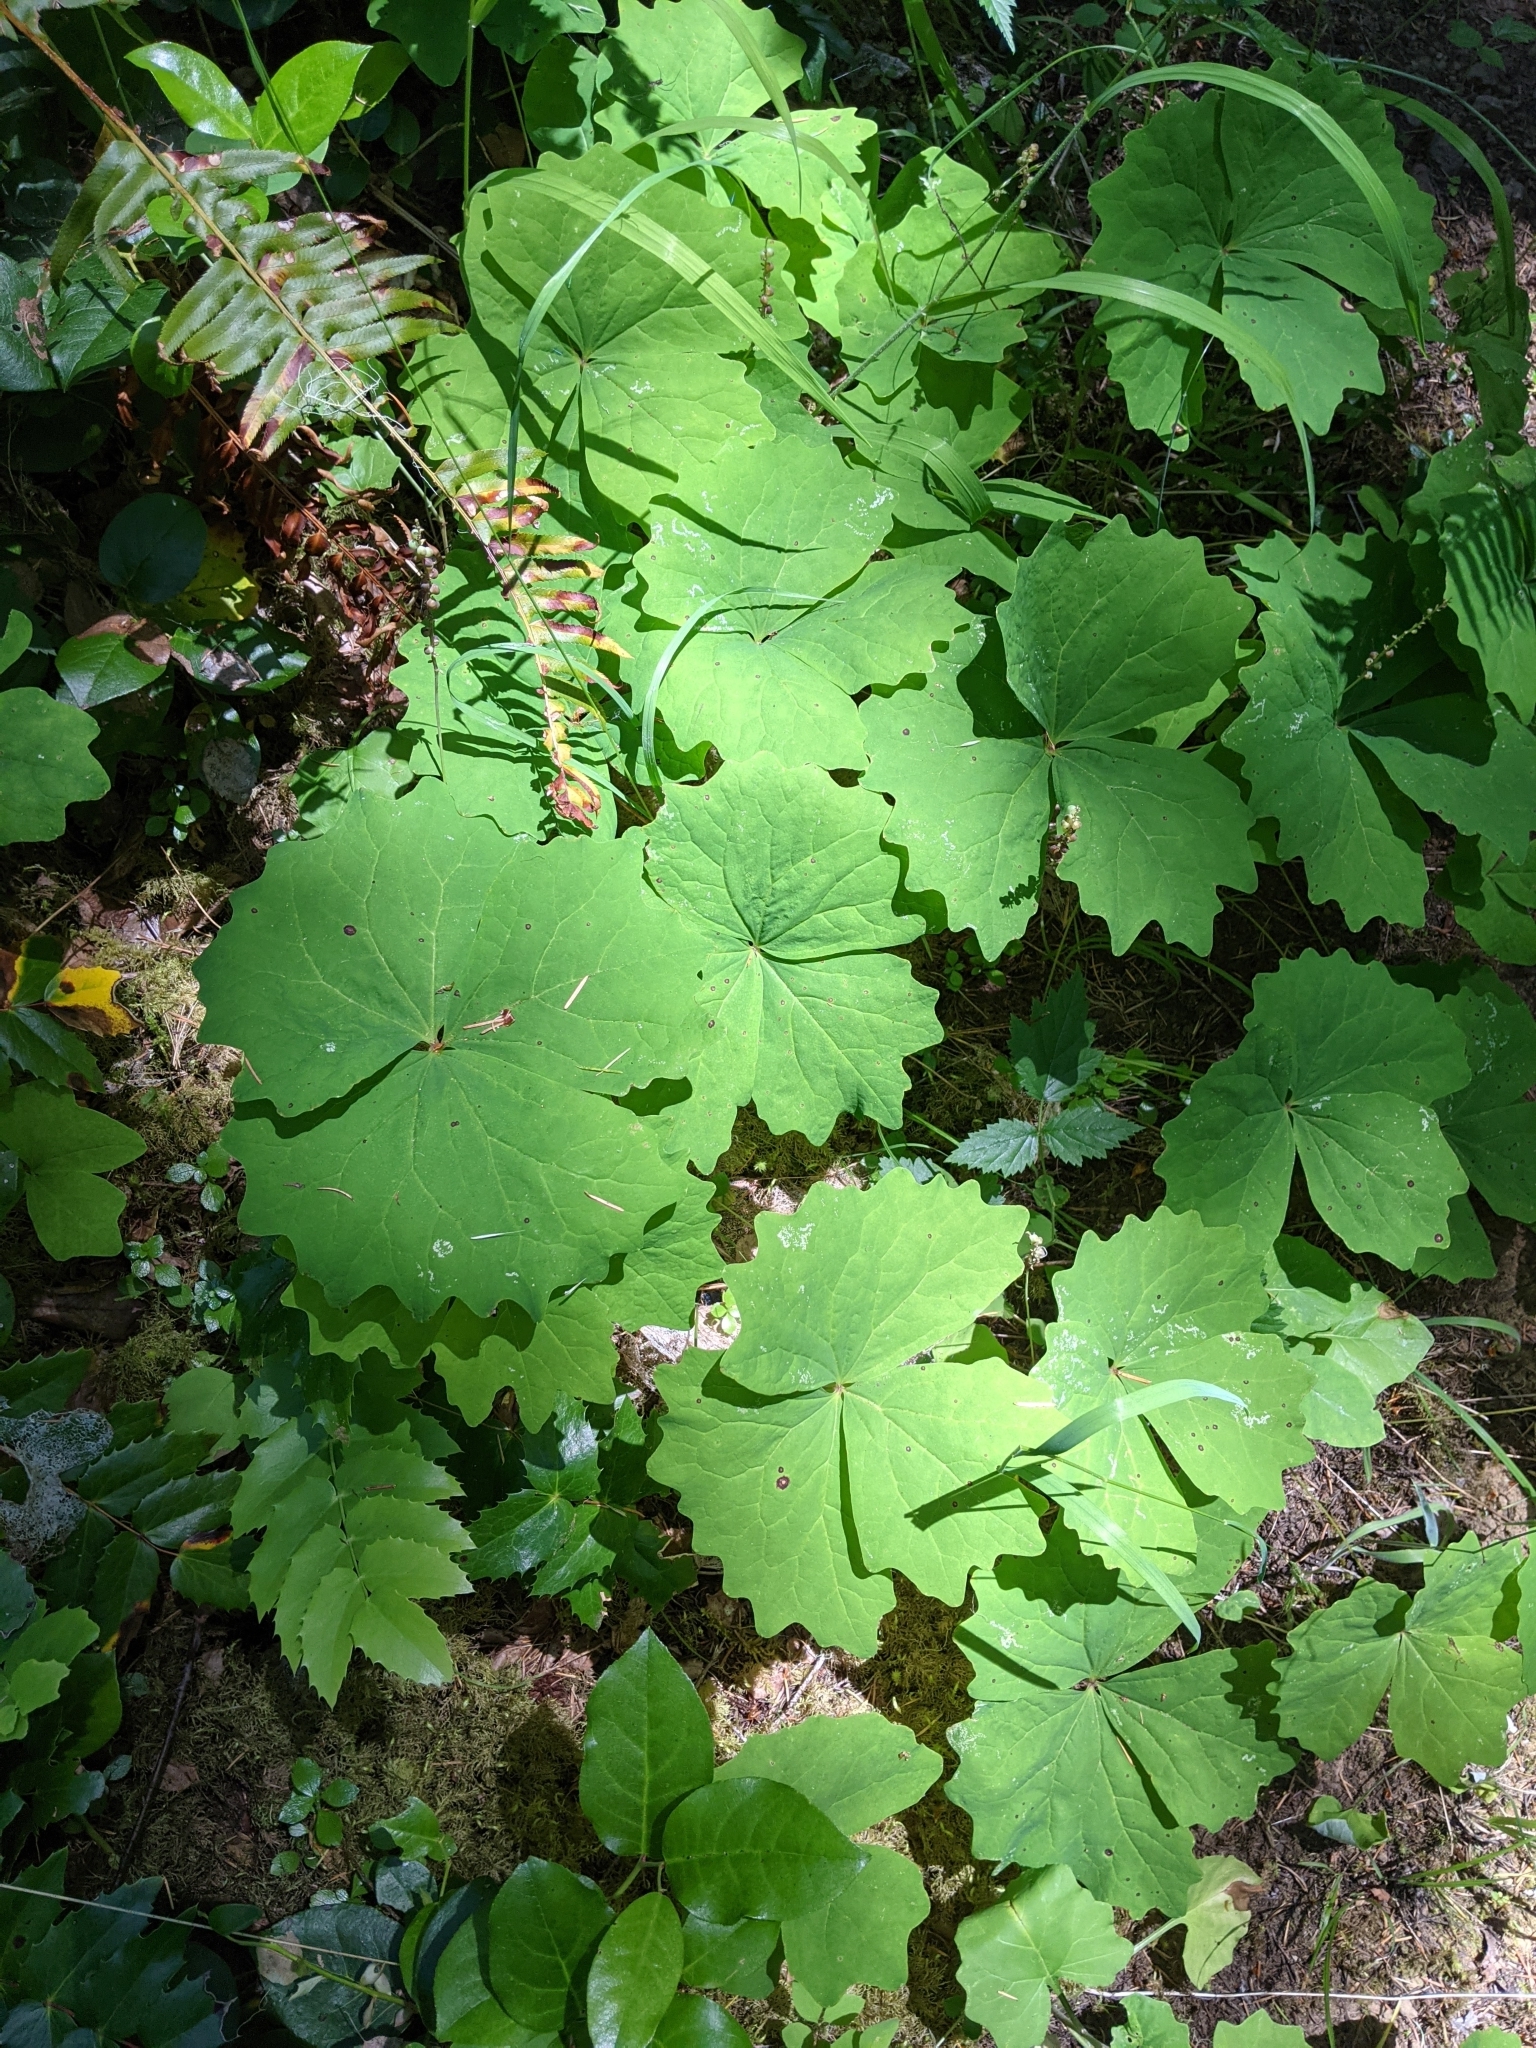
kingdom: Plantae
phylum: Tracheophyta
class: Magnoliopsida
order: Ranunculales
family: Berberidaceae
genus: Achlys
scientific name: Achlys californica
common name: California deer-foot
